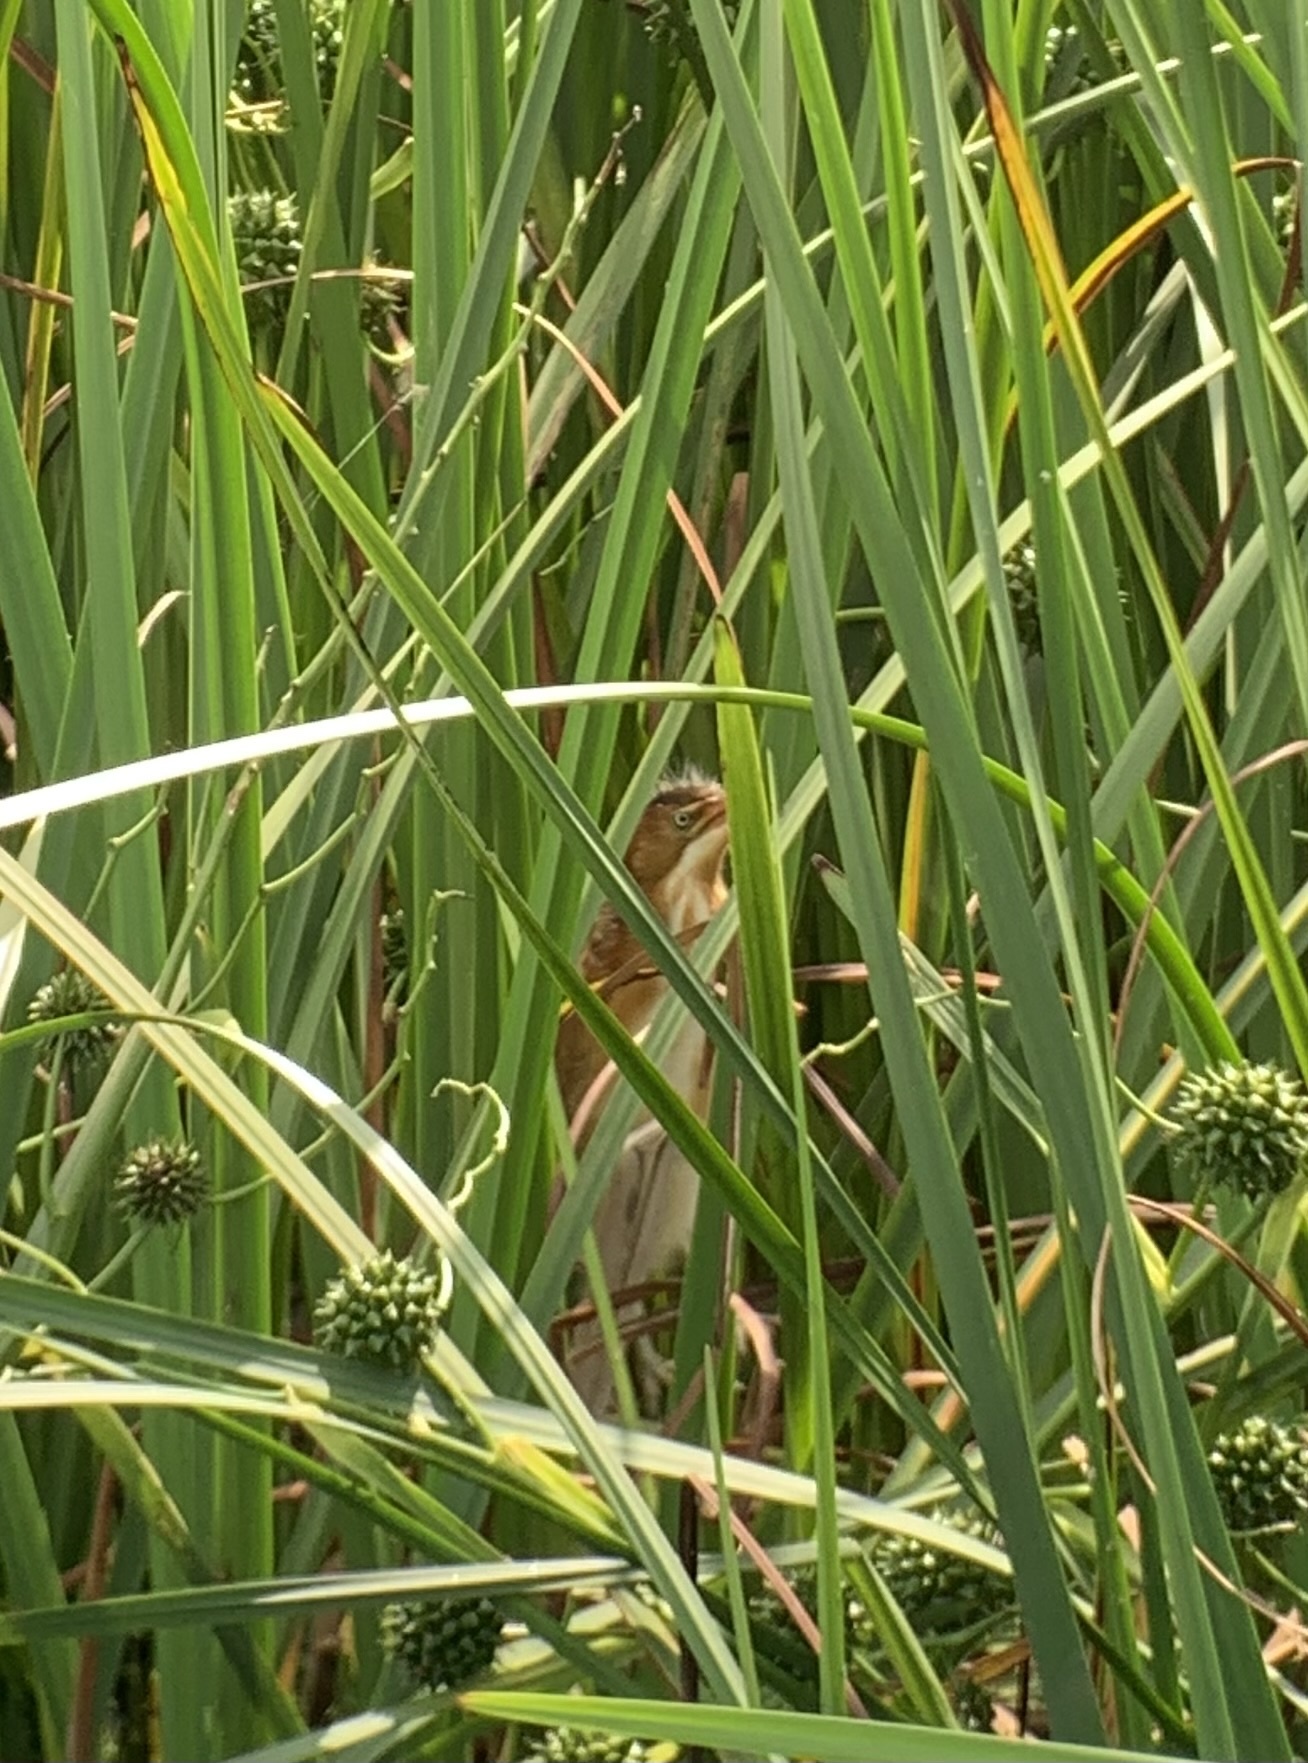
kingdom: Animalia
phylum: Chordata
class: Aves
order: Pelecaniformes
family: Ardeidae
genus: Ixobrychus
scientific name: Ixobrychus exilis
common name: Least bittern
